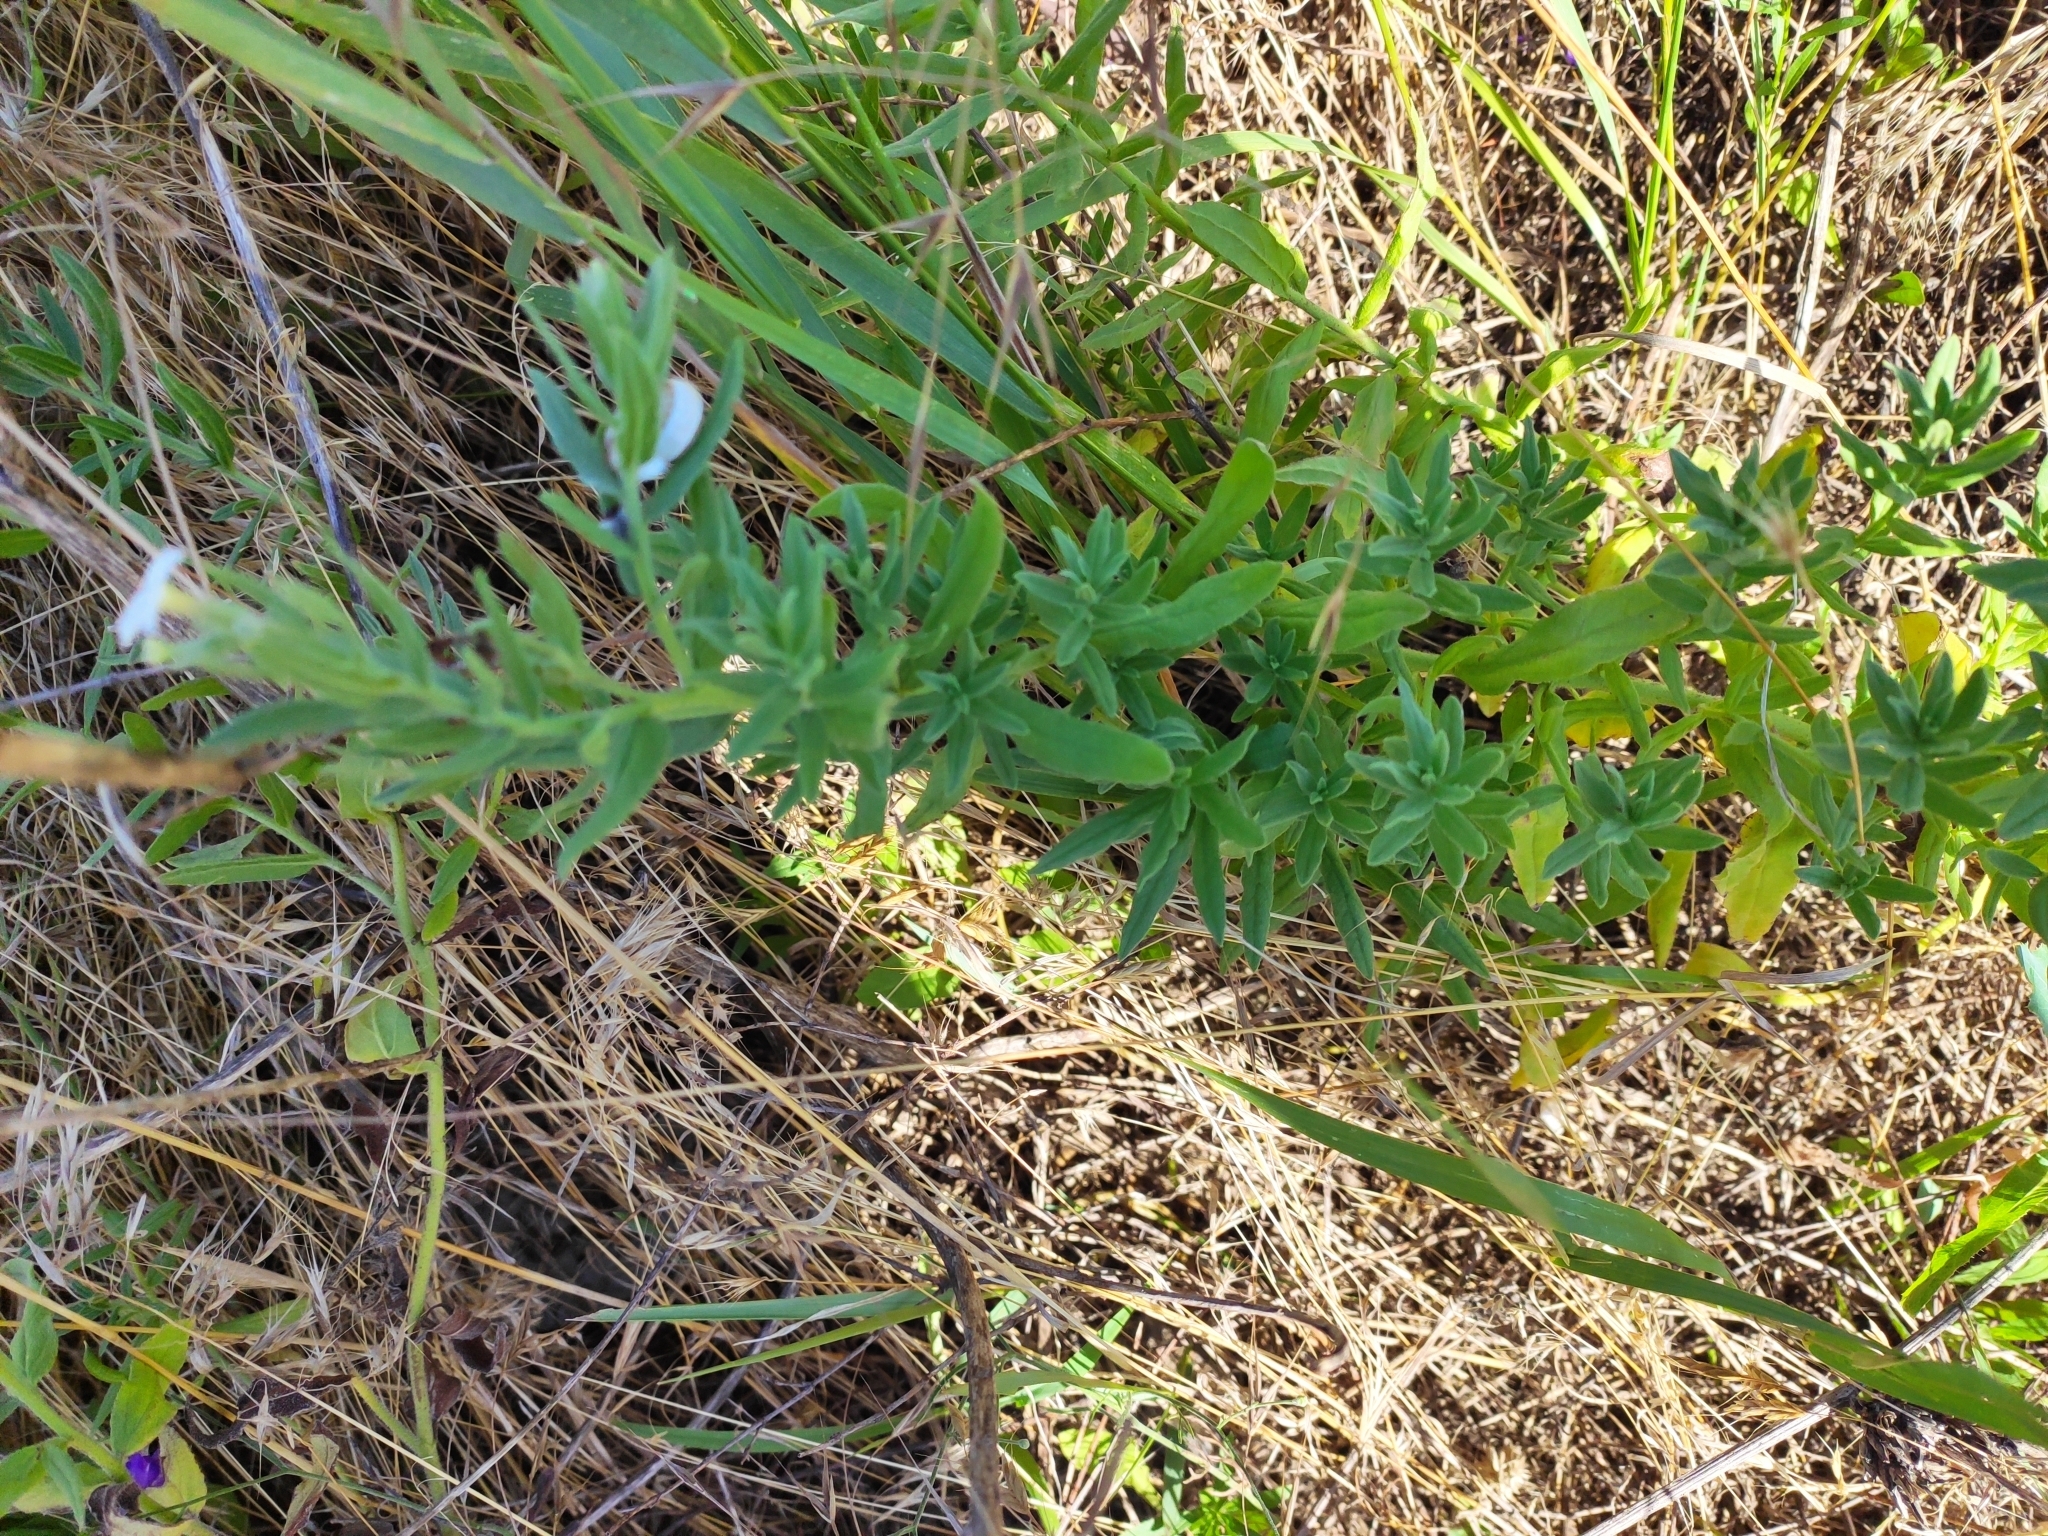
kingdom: Plantae
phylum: Tracheophyta
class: Magnoliopsida
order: Boraginales
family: Heliotropiaceae
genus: Tournefortia
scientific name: Tournefortia sibirica
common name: Siberian sea rosemary
